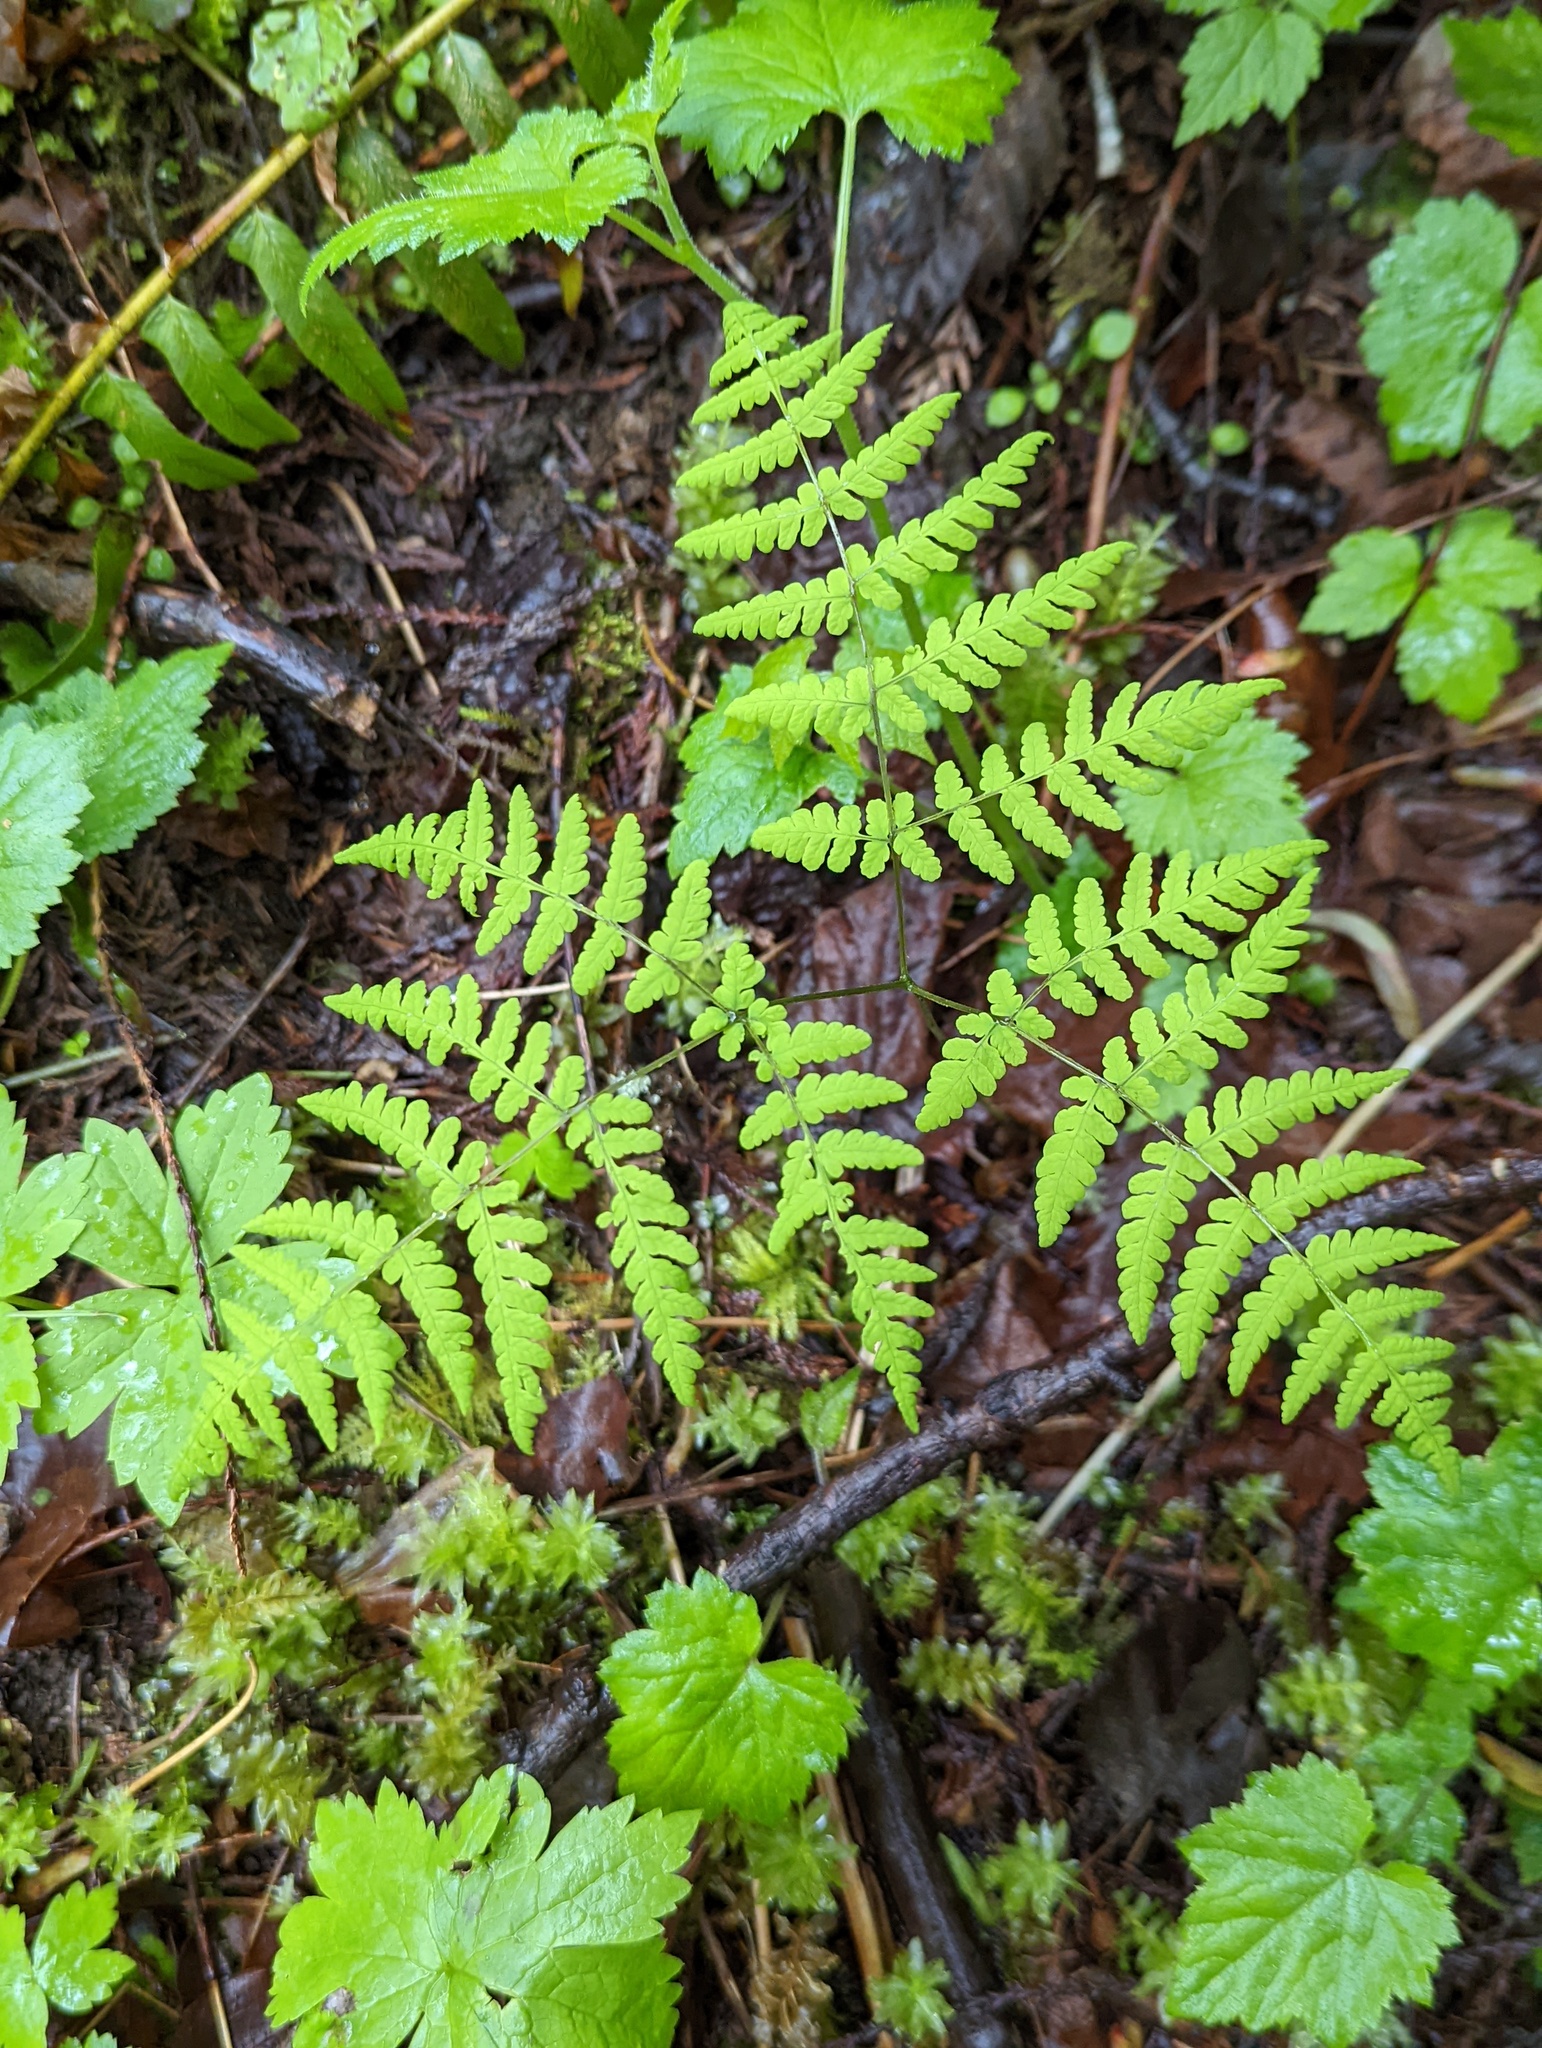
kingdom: Plantae
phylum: Tracheophyta
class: Polypodiopsida
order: Polypodiales
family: Cystopteridaceae
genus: Gymnocarpium
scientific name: Gymnocarpium disjunctum
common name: Western oak fern
